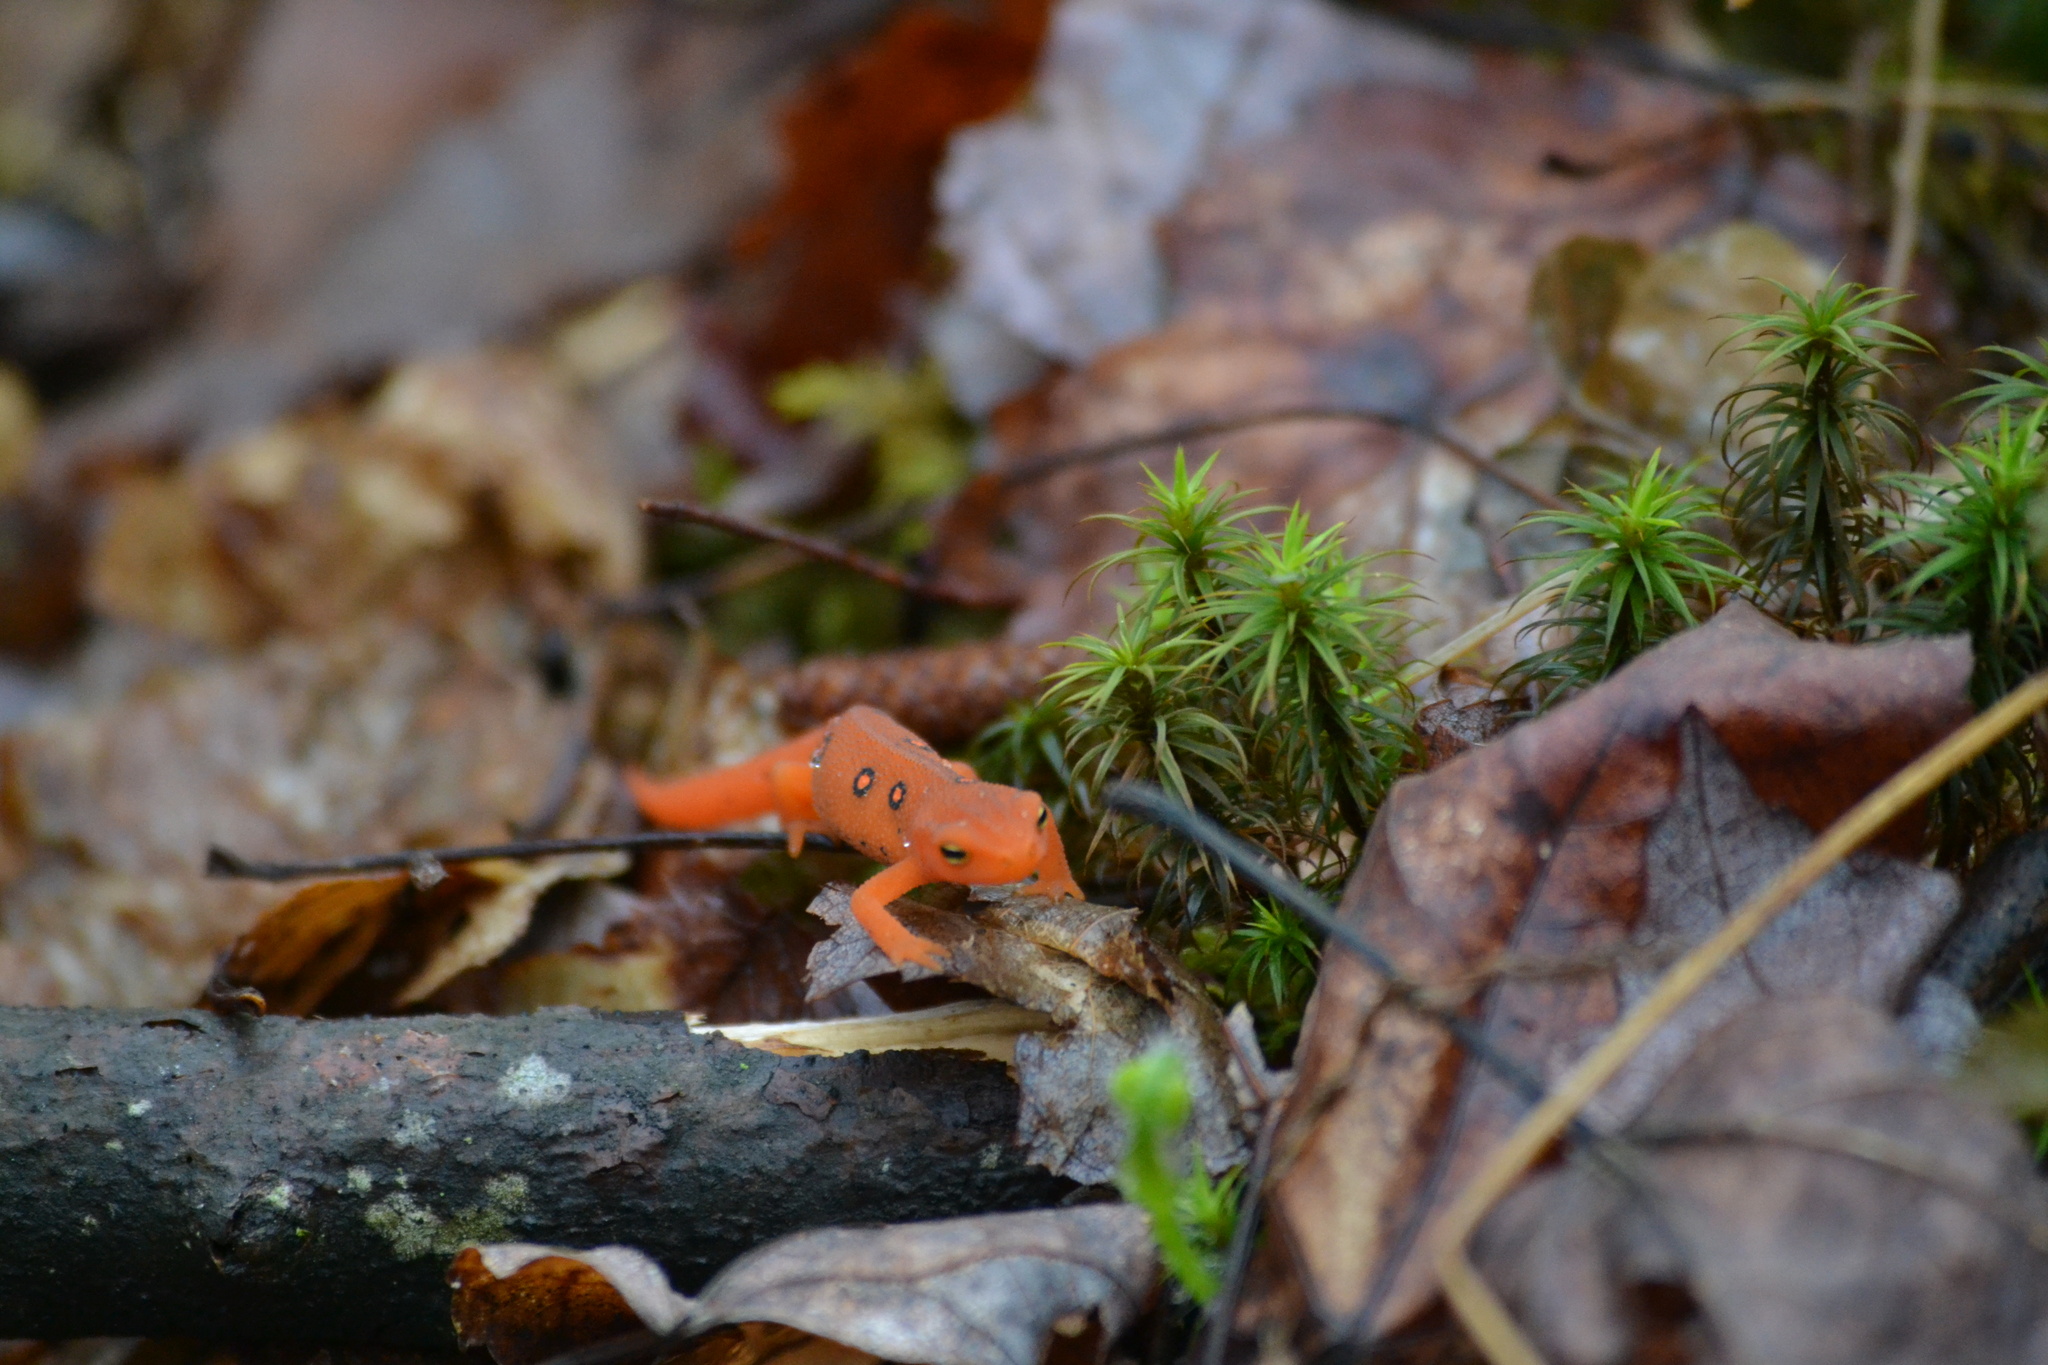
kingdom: Animalia
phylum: Chordata
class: Amphibia
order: Caudata
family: Salamandridae
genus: Notophthalmus
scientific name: Notophthalmus viridescens
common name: Eastern newt
